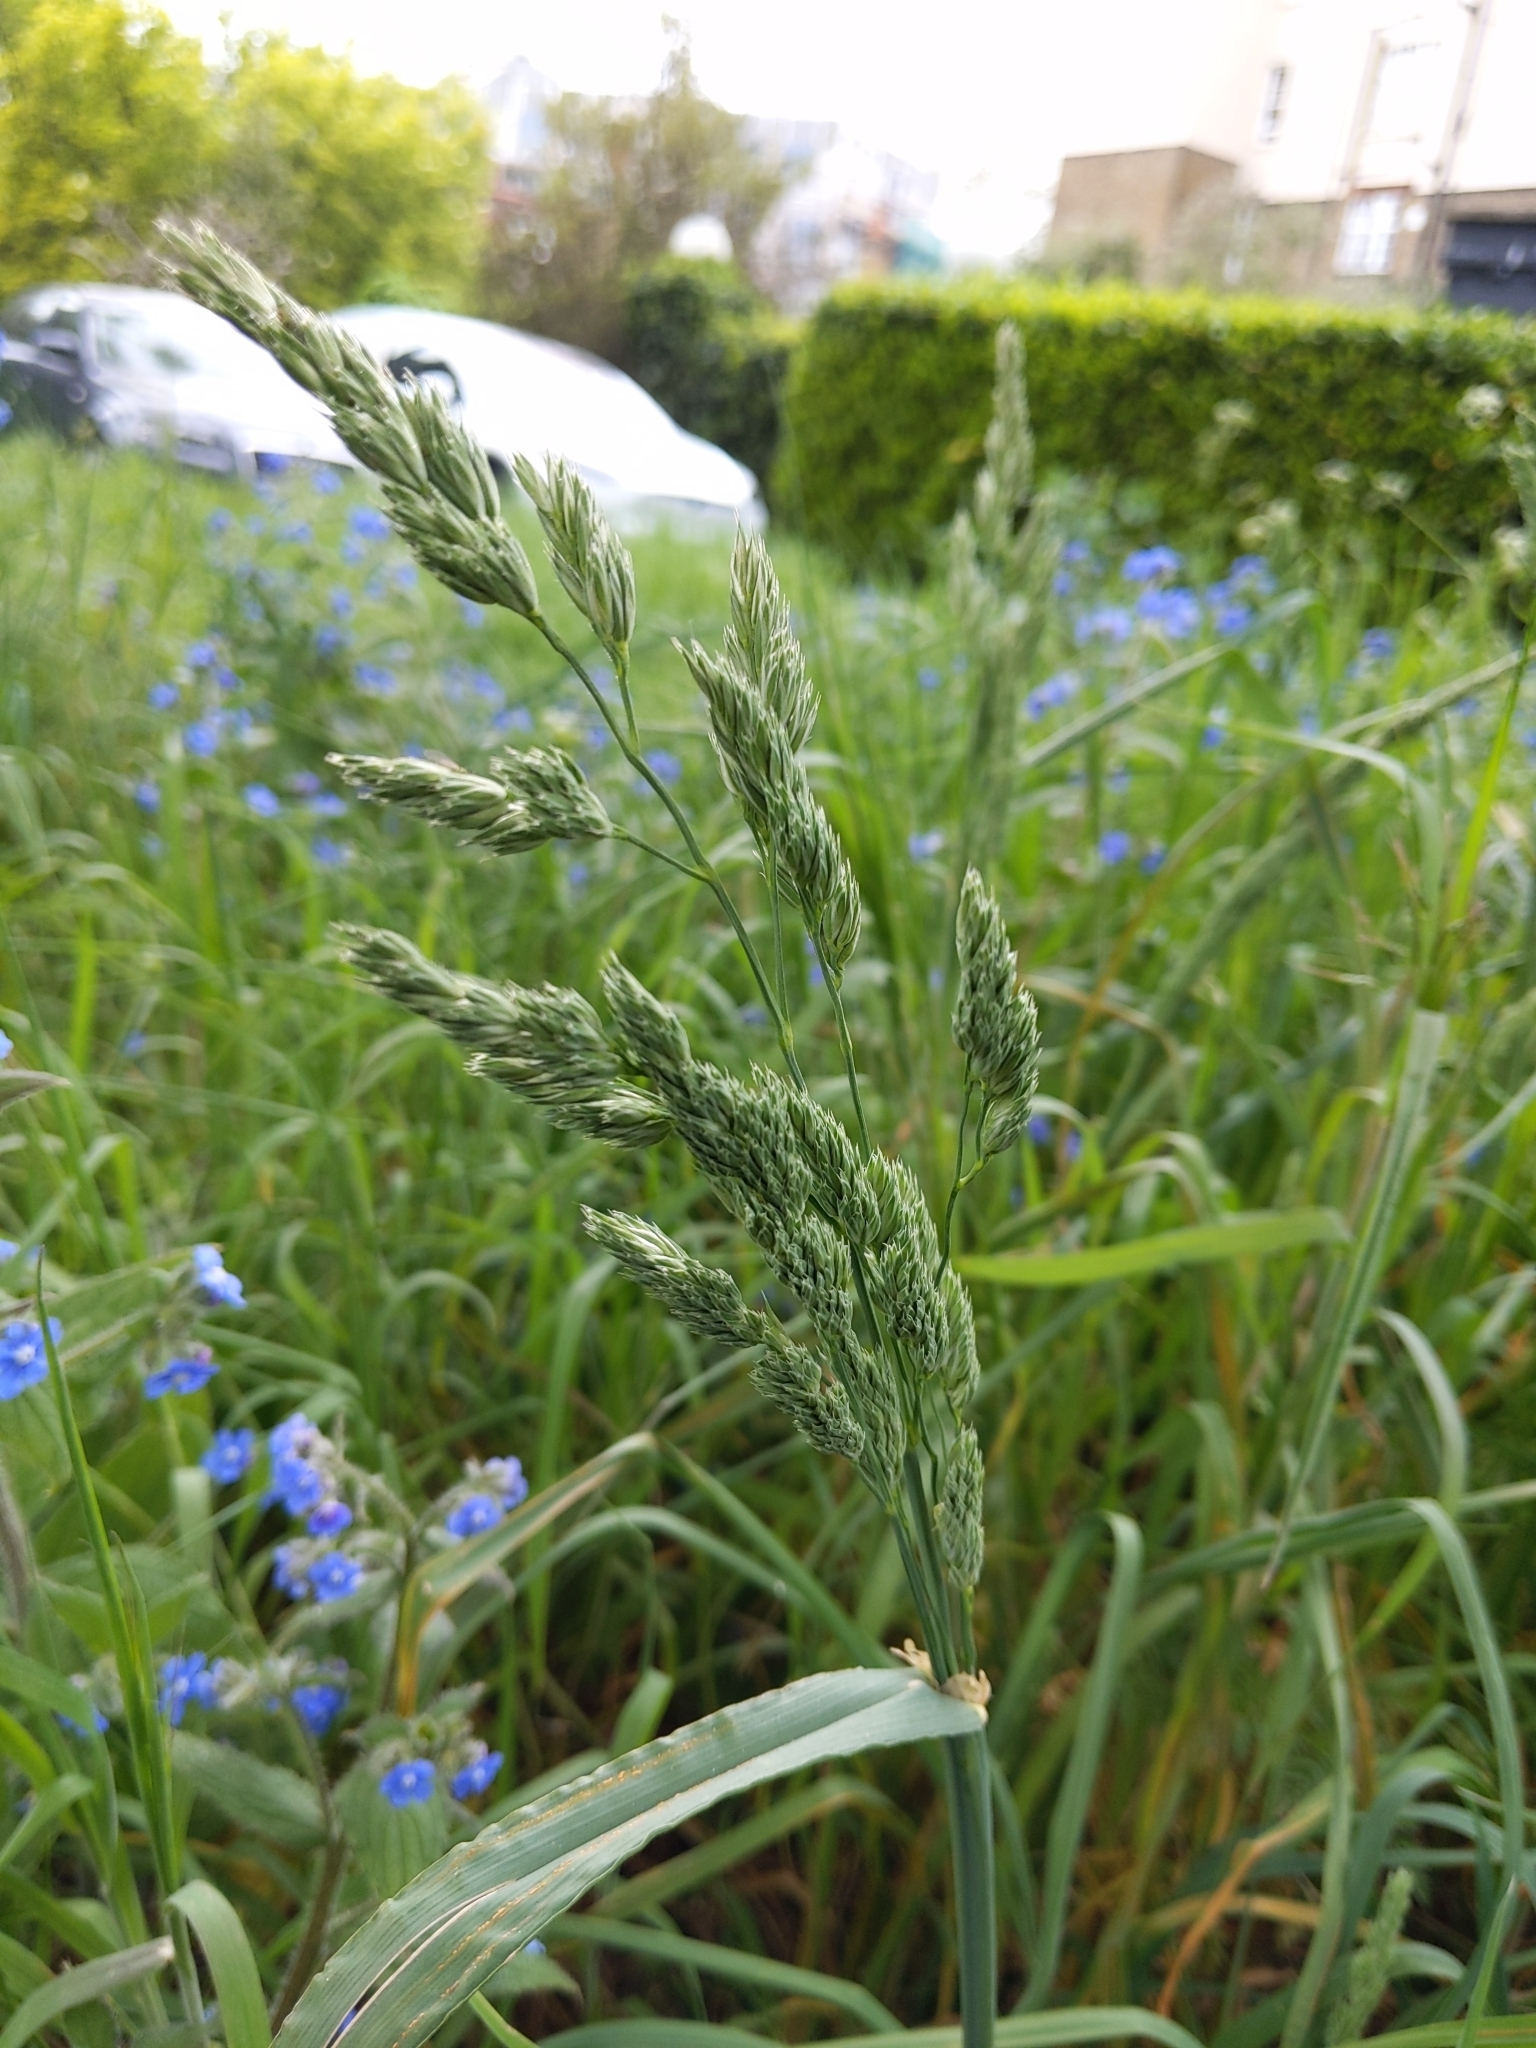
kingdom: Plantae
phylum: Tracheophyta
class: Liliopsida
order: Poales
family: Poaceae
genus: Dactylis
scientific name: Dactylis glomerata
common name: Orchardgrass
